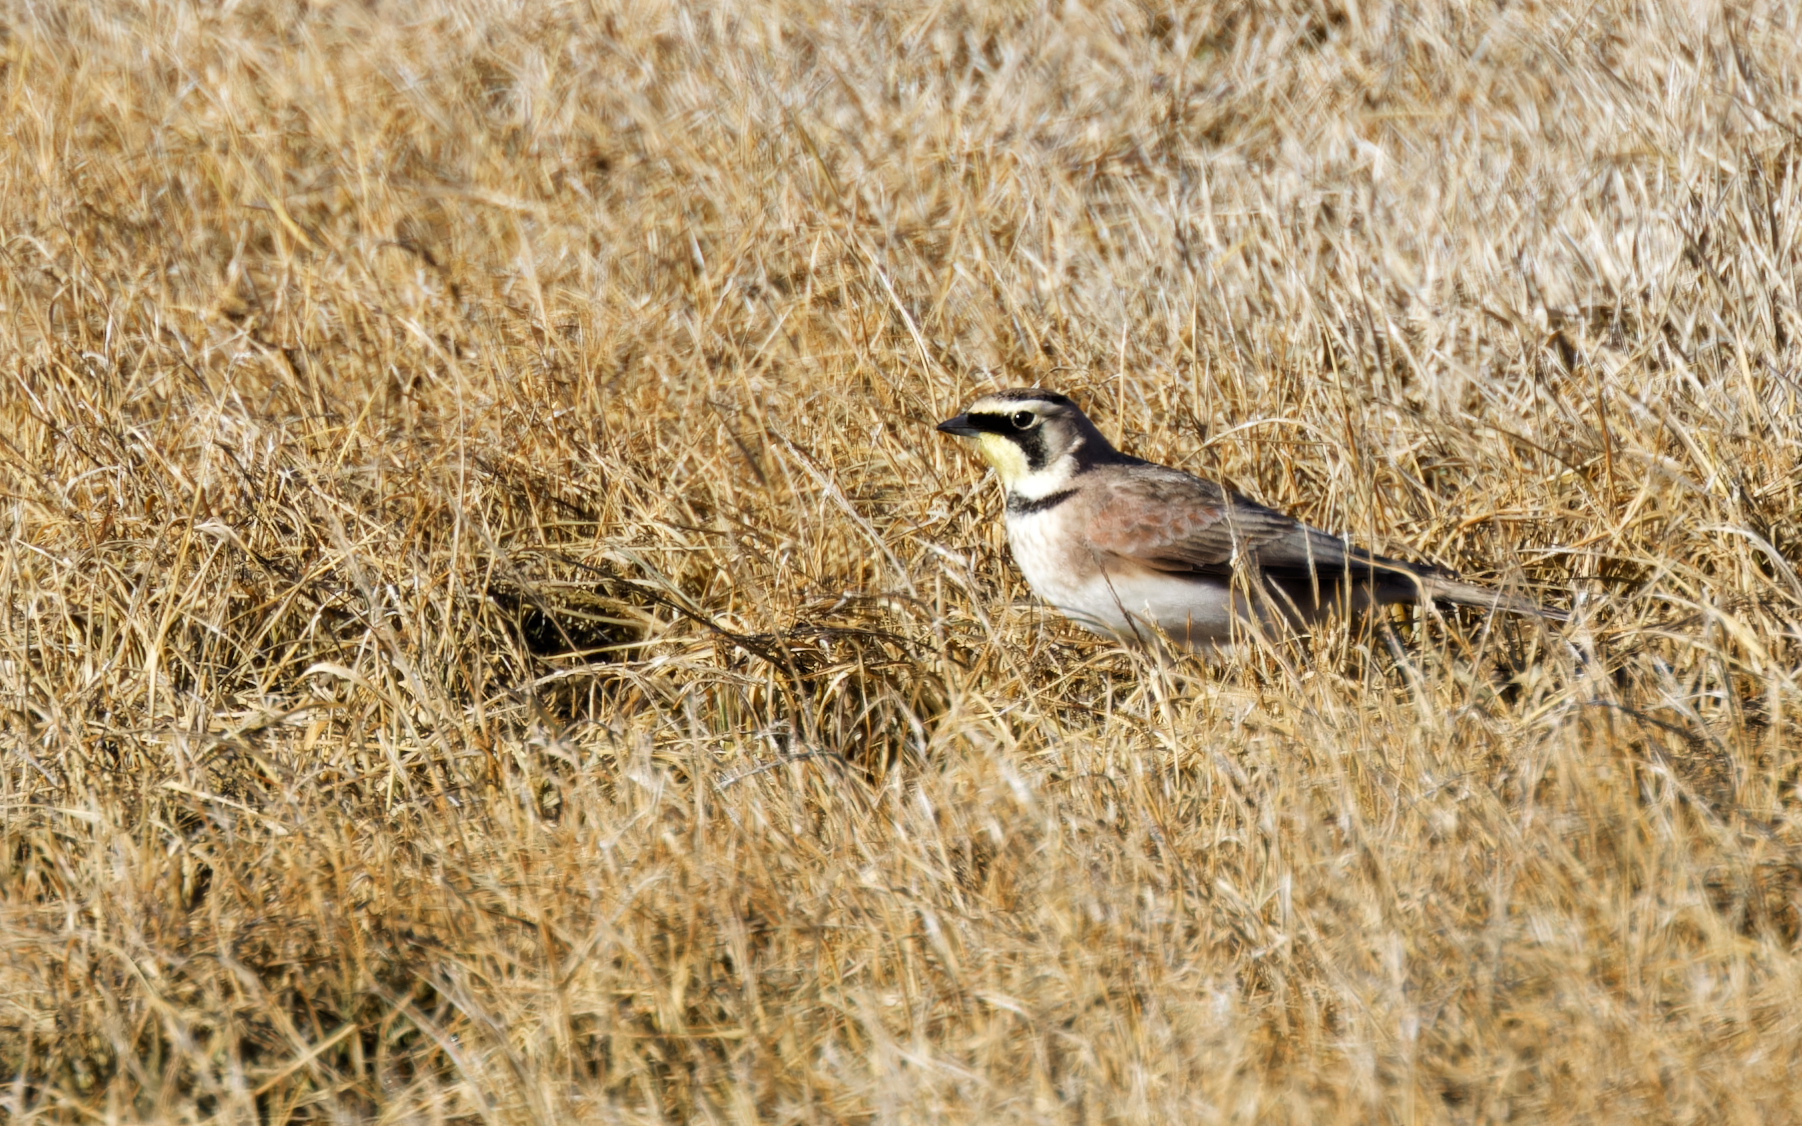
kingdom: Animalia
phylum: Chordata
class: Aves
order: Passeriformes
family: Alaudidae
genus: Eremophila
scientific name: Eremophila alpestris
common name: Horned lark
